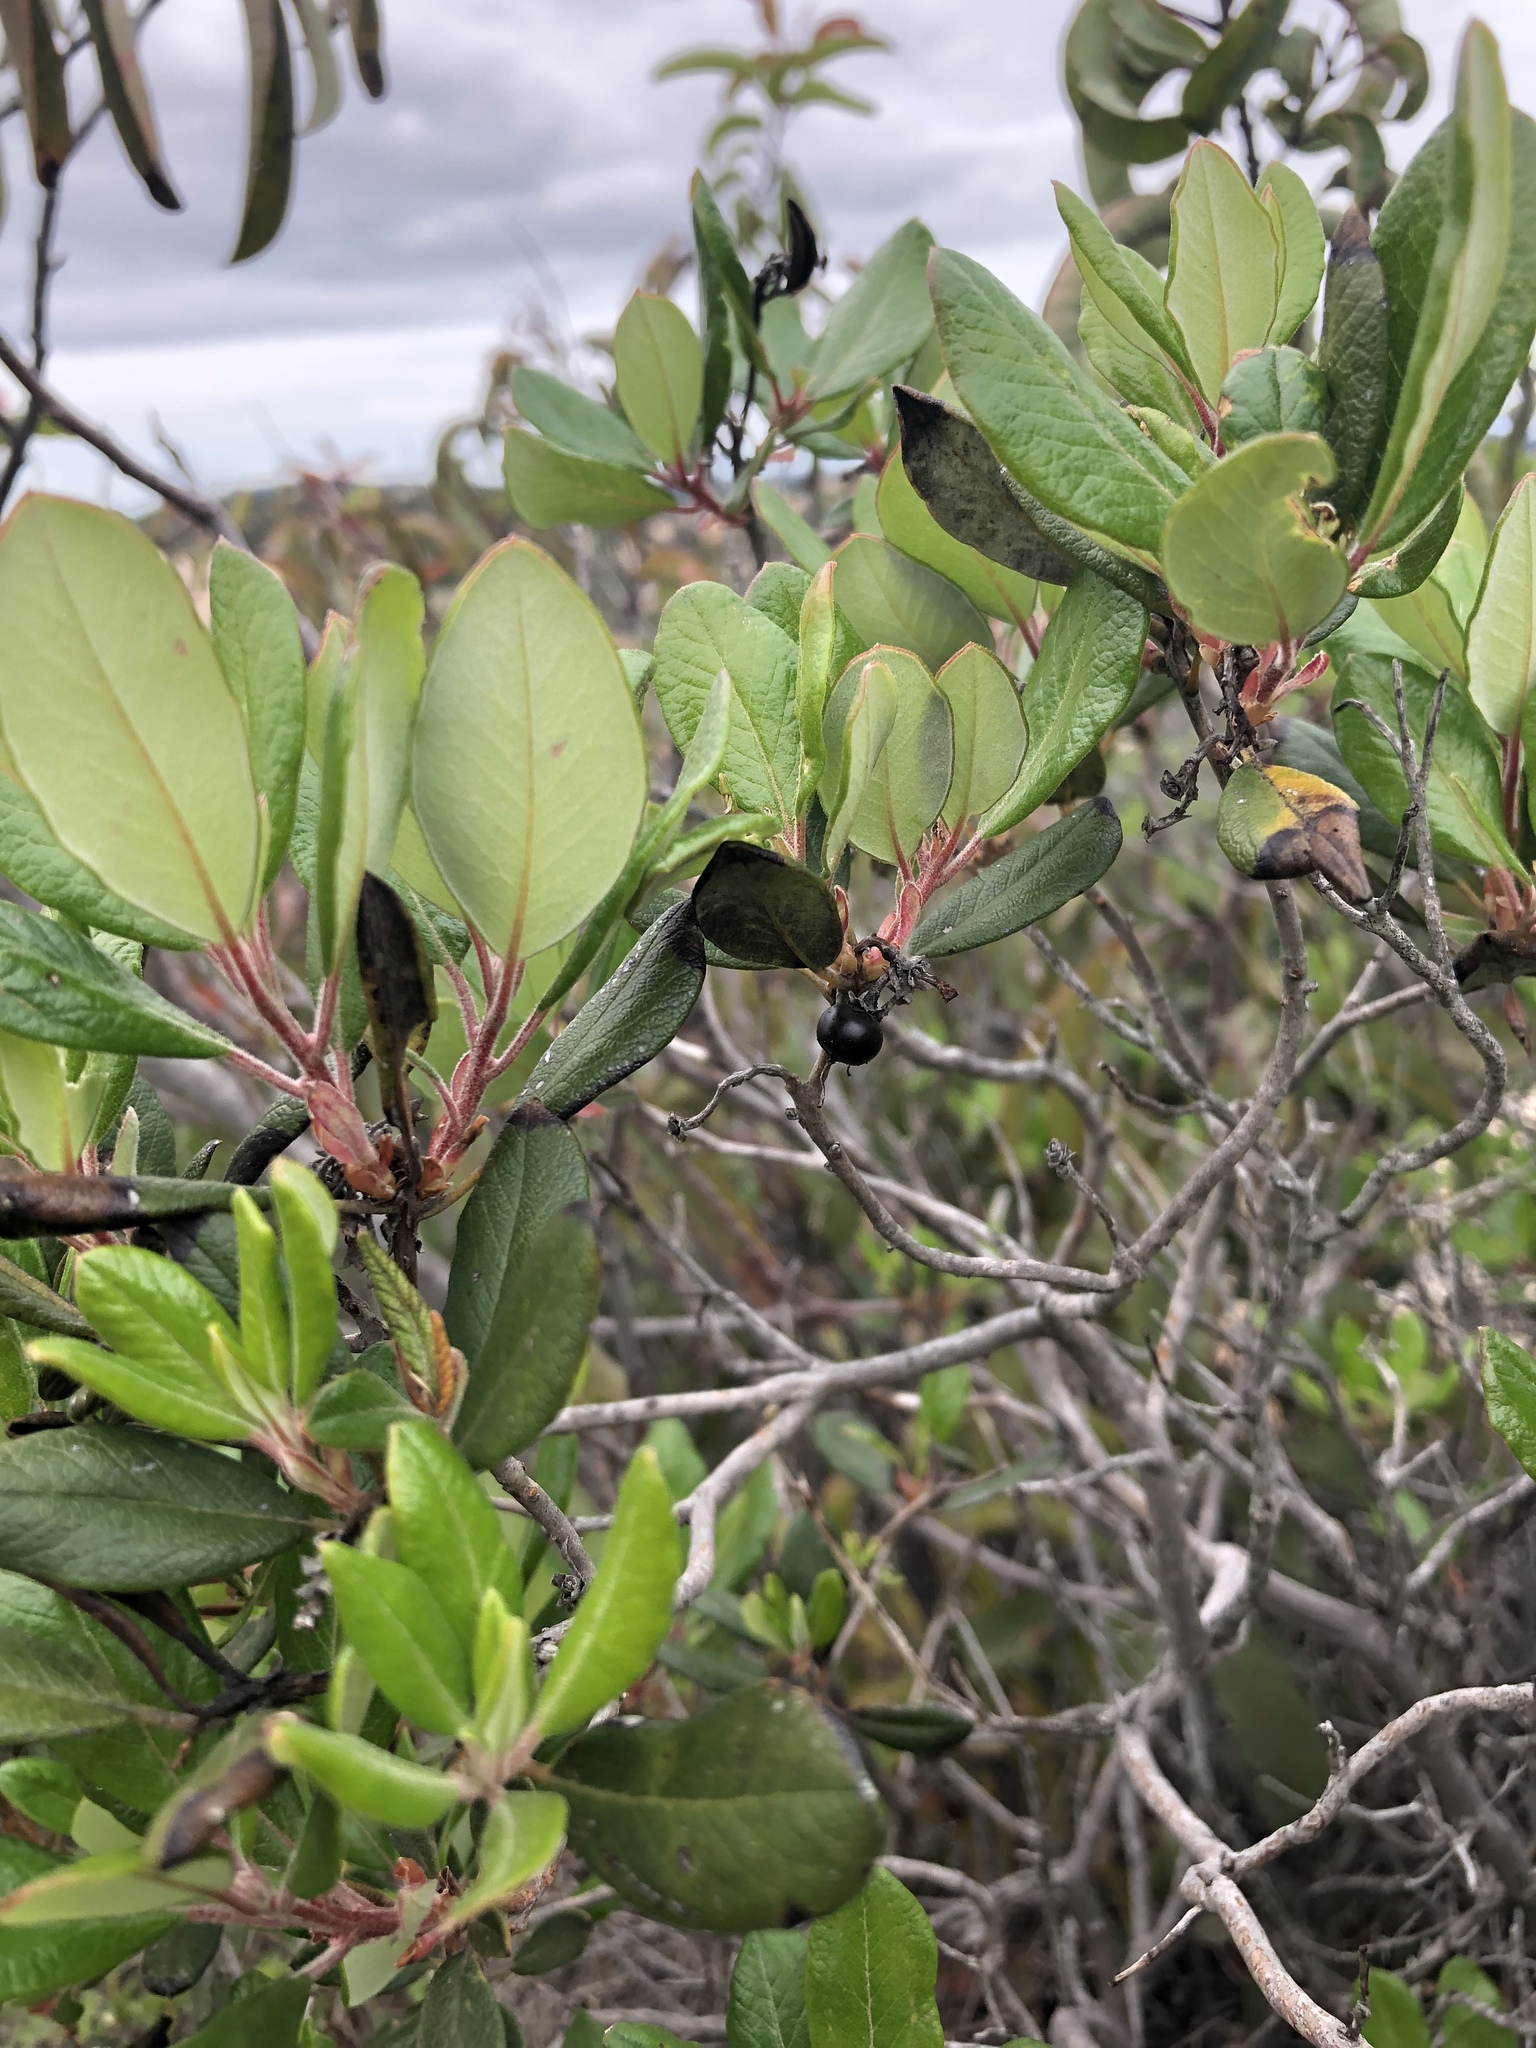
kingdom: Plantae
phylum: Tracheophyta
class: Magnoliopsida
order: Ericales
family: Ericaceae
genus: Arctostaphylos
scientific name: Arctostaphylos bicolor
